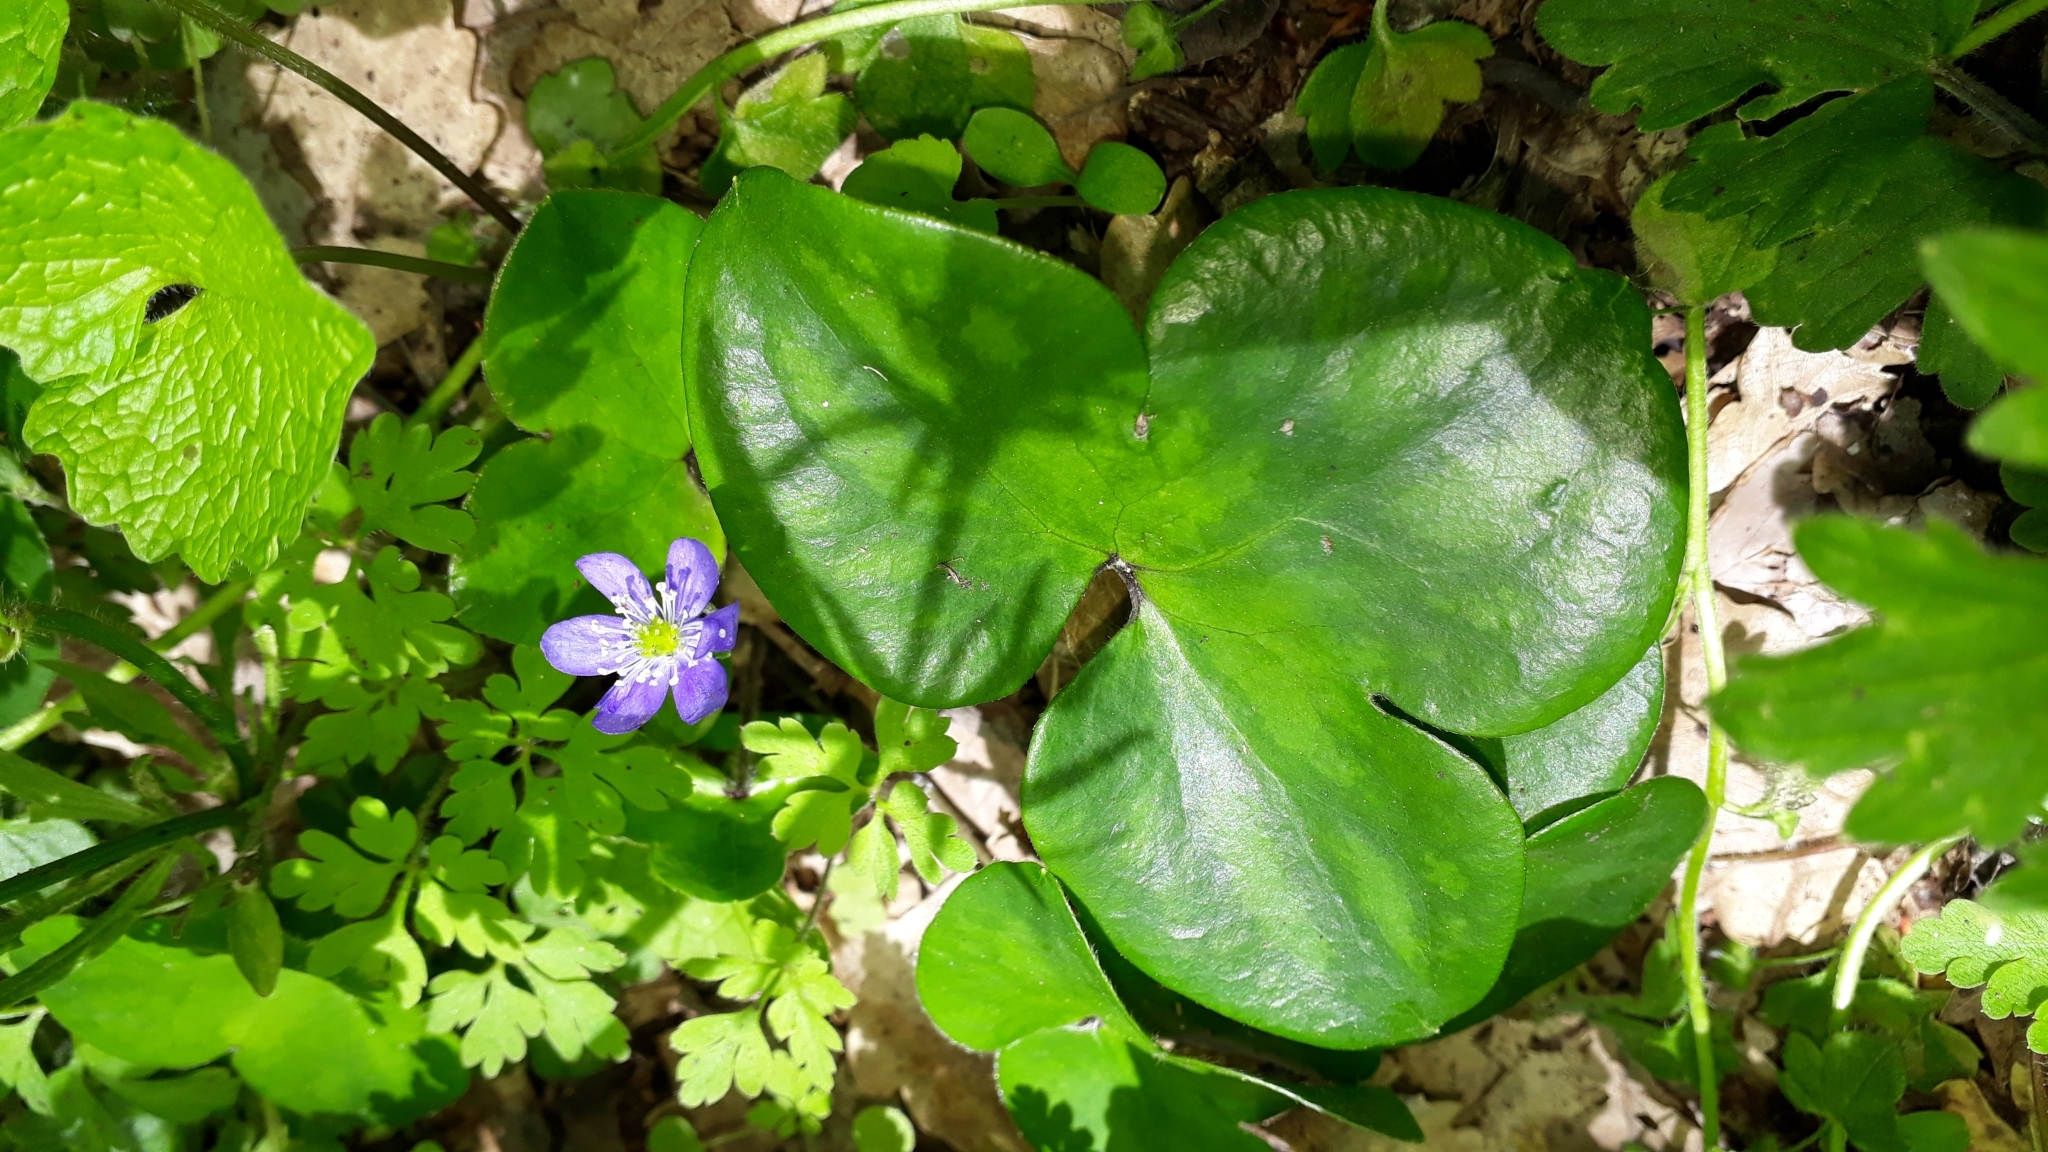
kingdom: Plantae
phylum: Tracheophyta
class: Magnoliopsida
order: Ranunculales
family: Ranunculaceae
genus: Hepatica
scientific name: Hepatica nobilis
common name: Liverleaf
